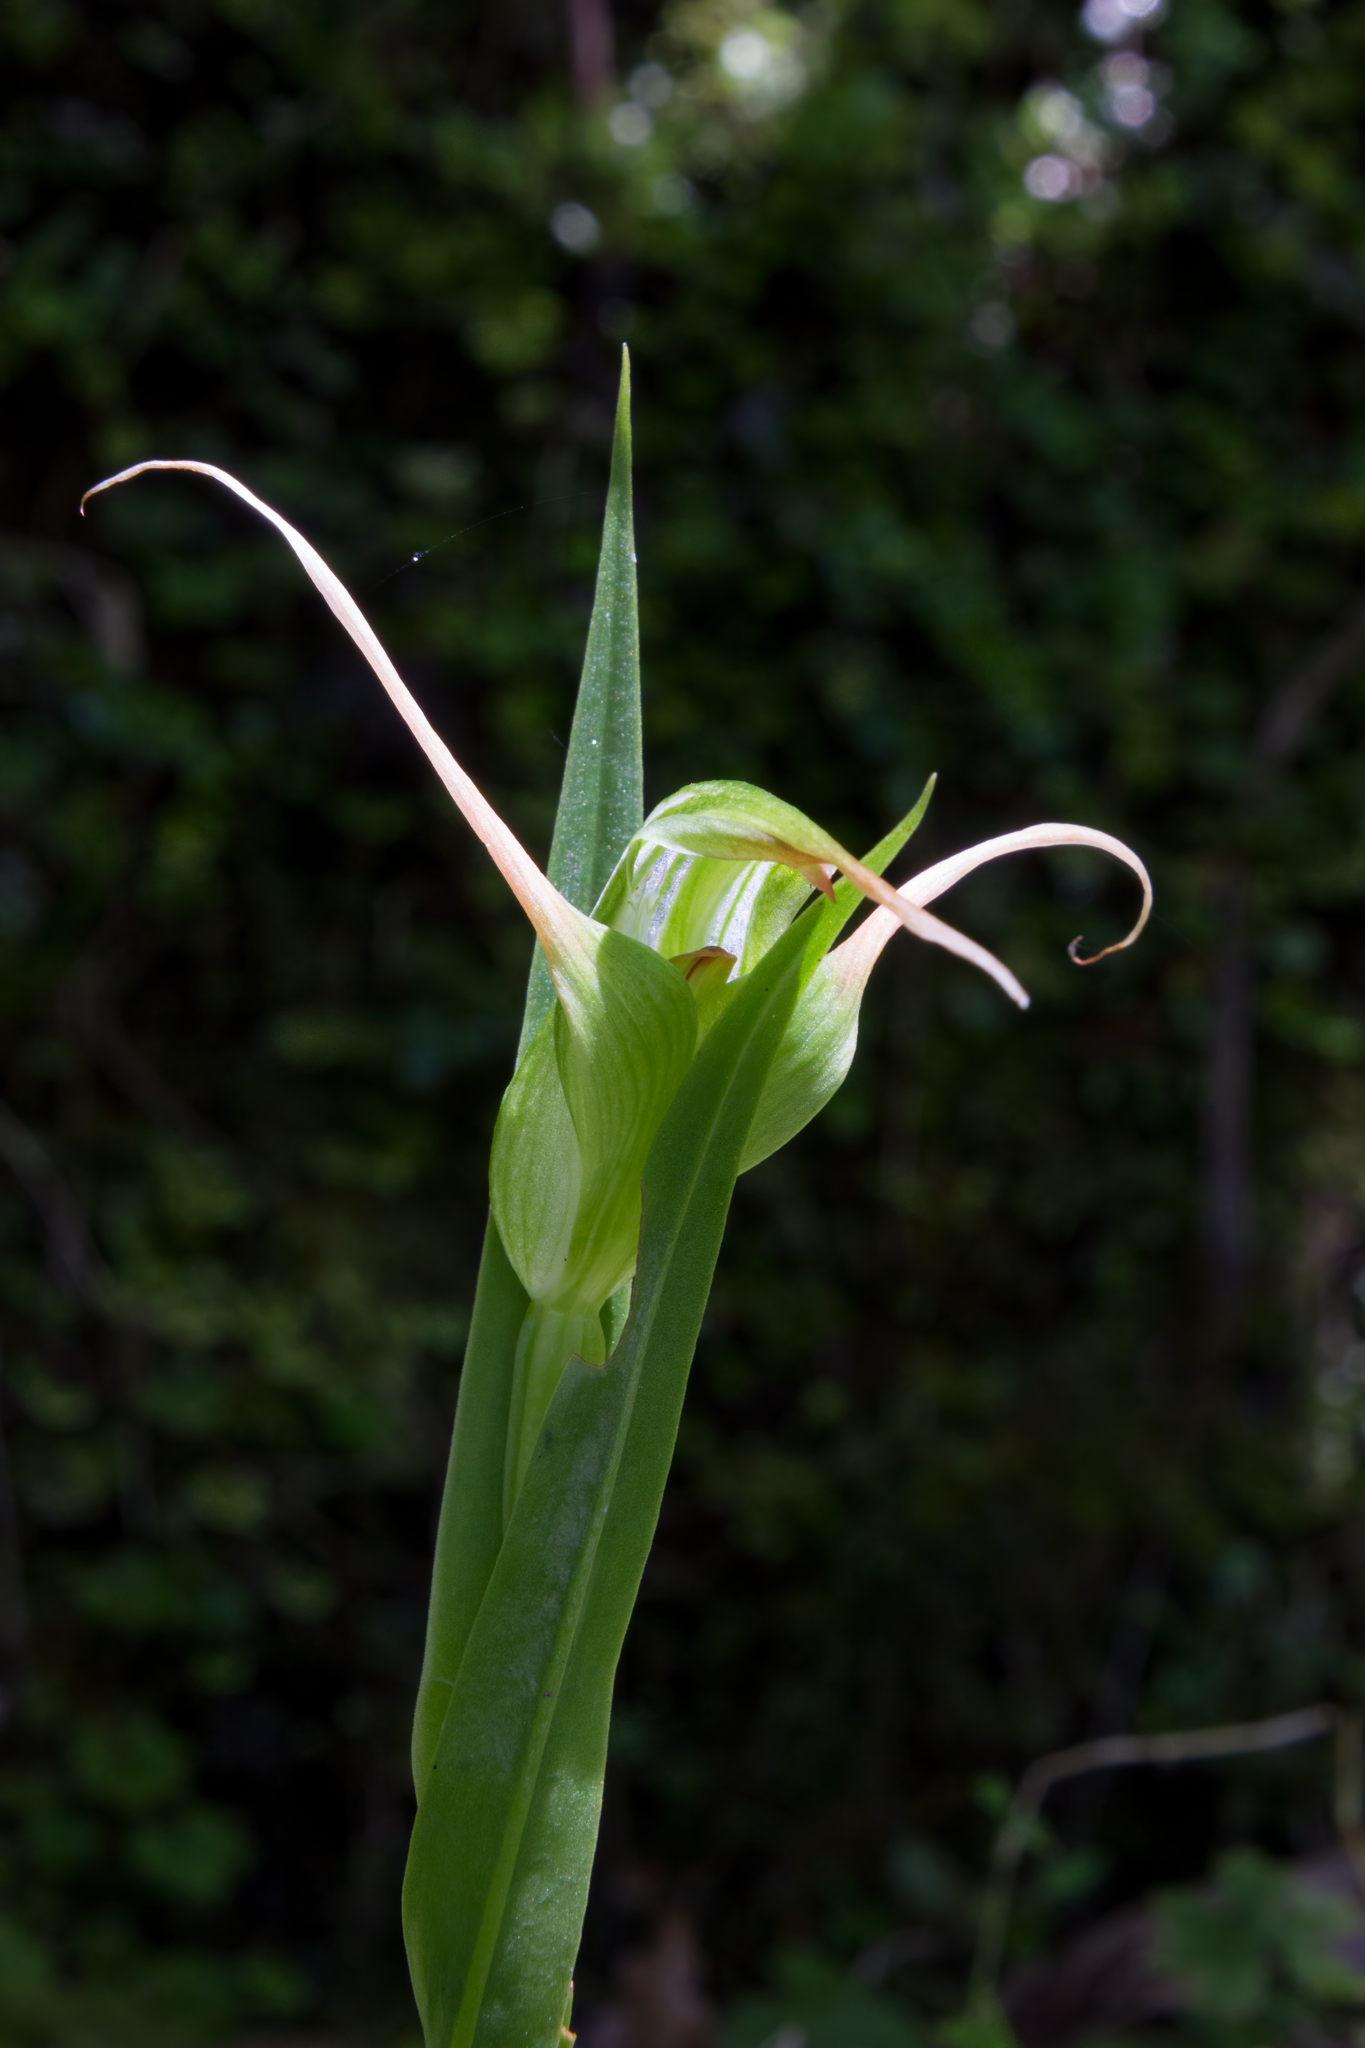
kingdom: Plantae
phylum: Tracheophyta
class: Liliopsida
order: Asparagales
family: Orchidaceae
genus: Pterostylis
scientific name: Pterostylis banksii
